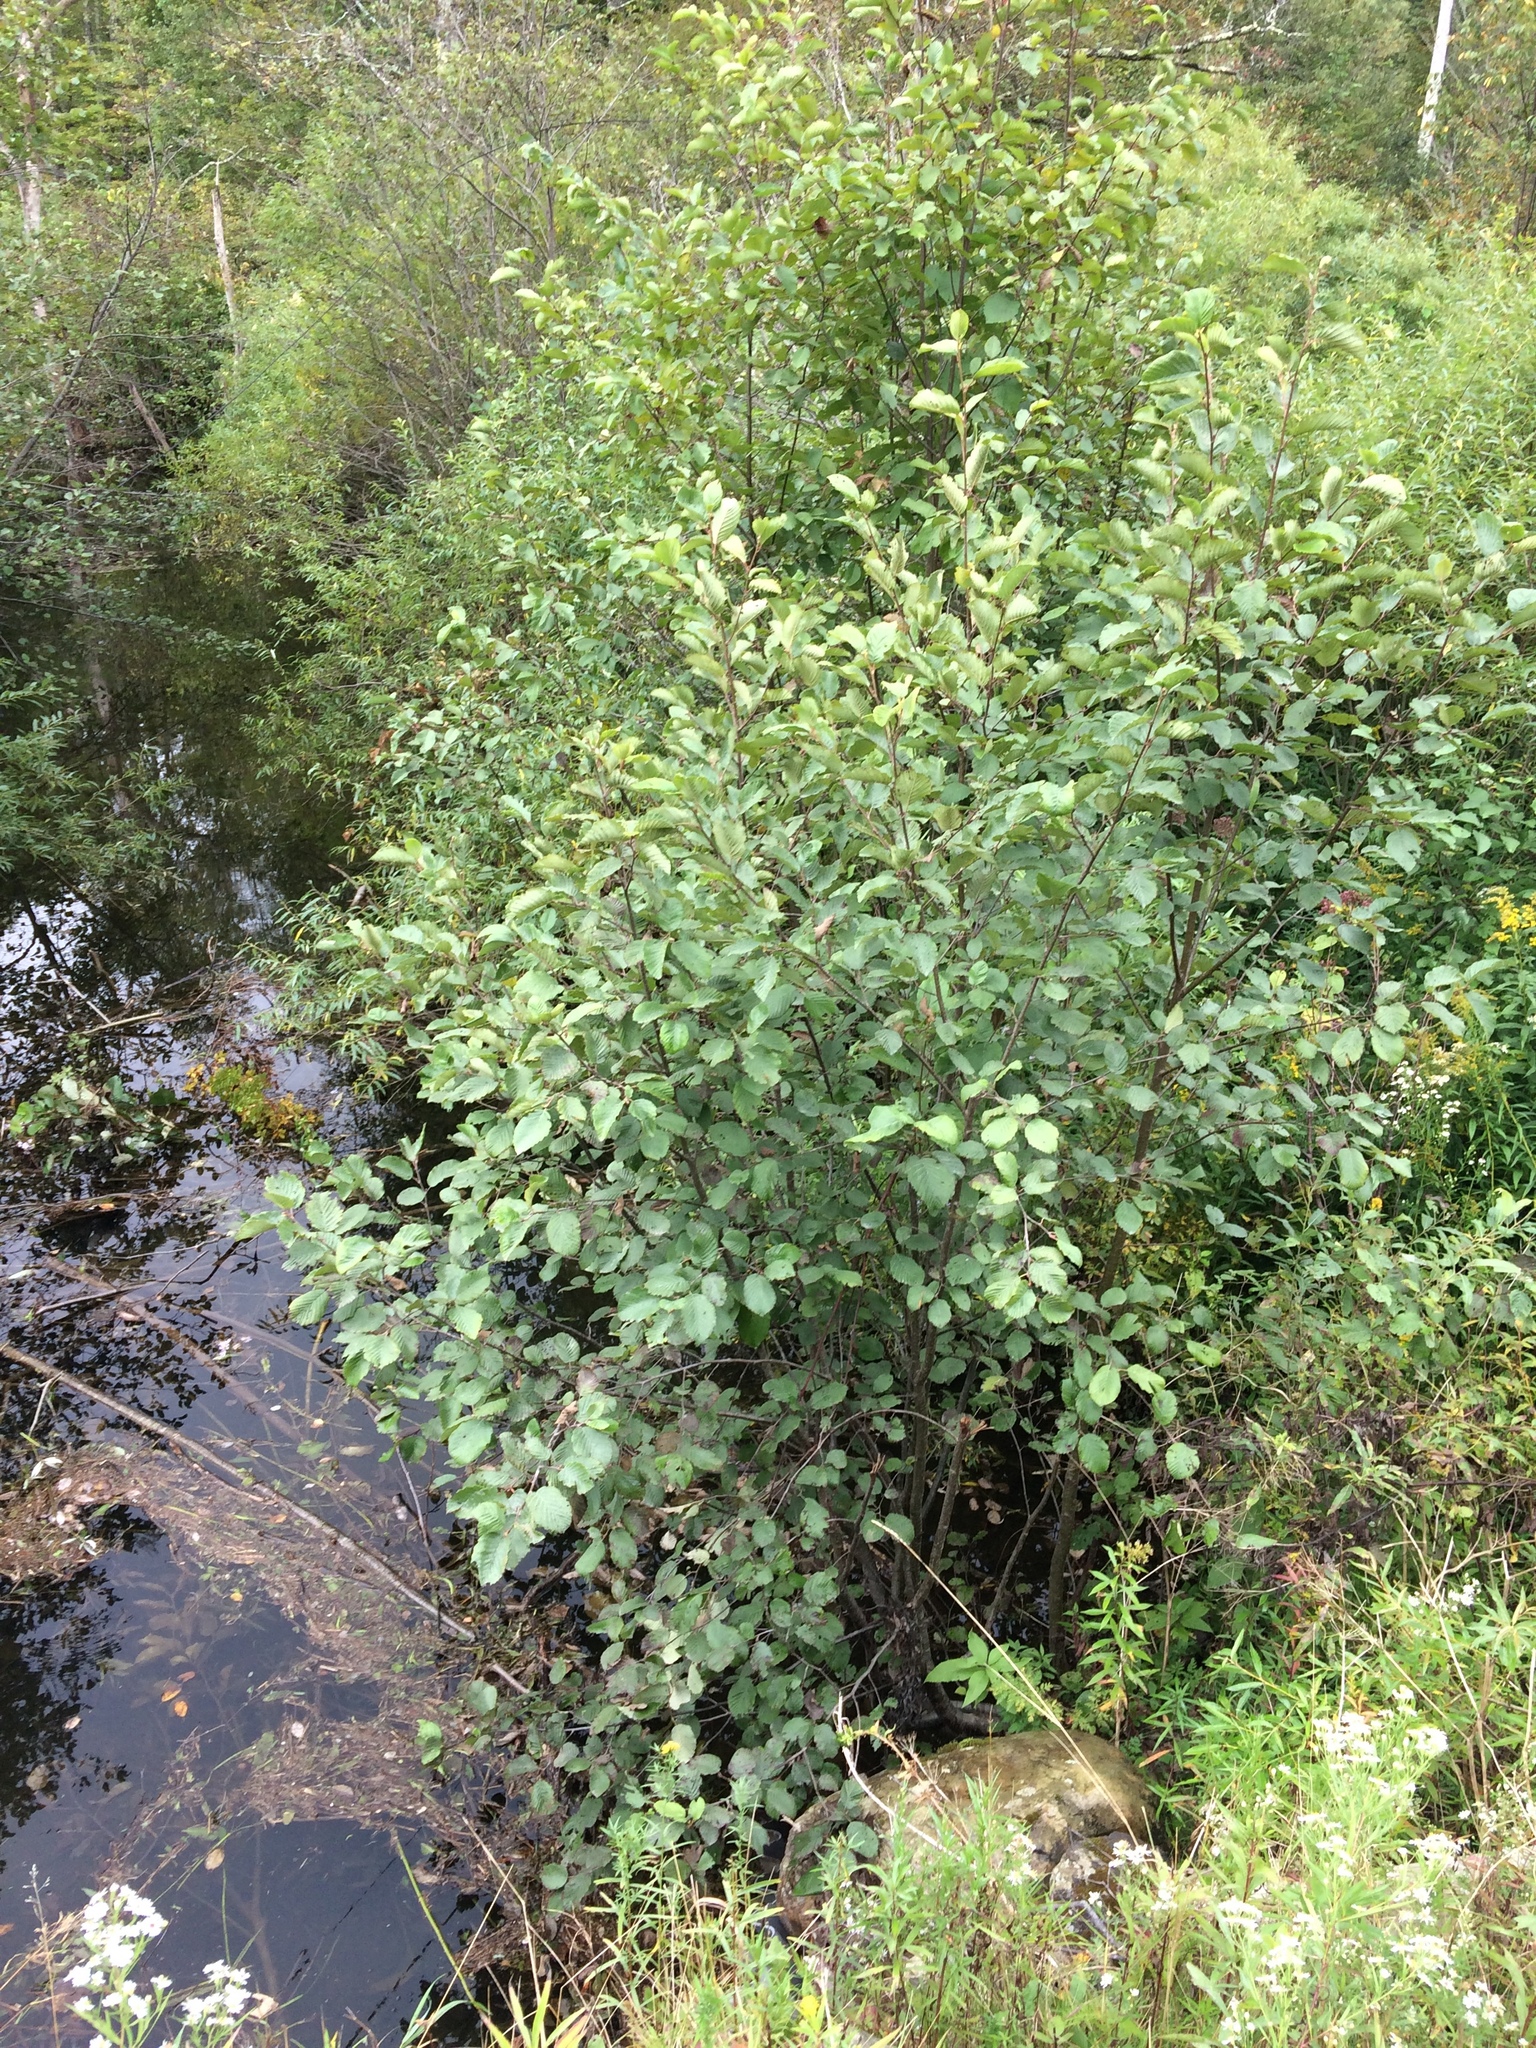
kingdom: Plantae
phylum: Tracheophyta
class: Magnoliopsida
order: Fagales
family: Betulaceae
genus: Alnus
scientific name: Alnus incana
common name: Grey alder
